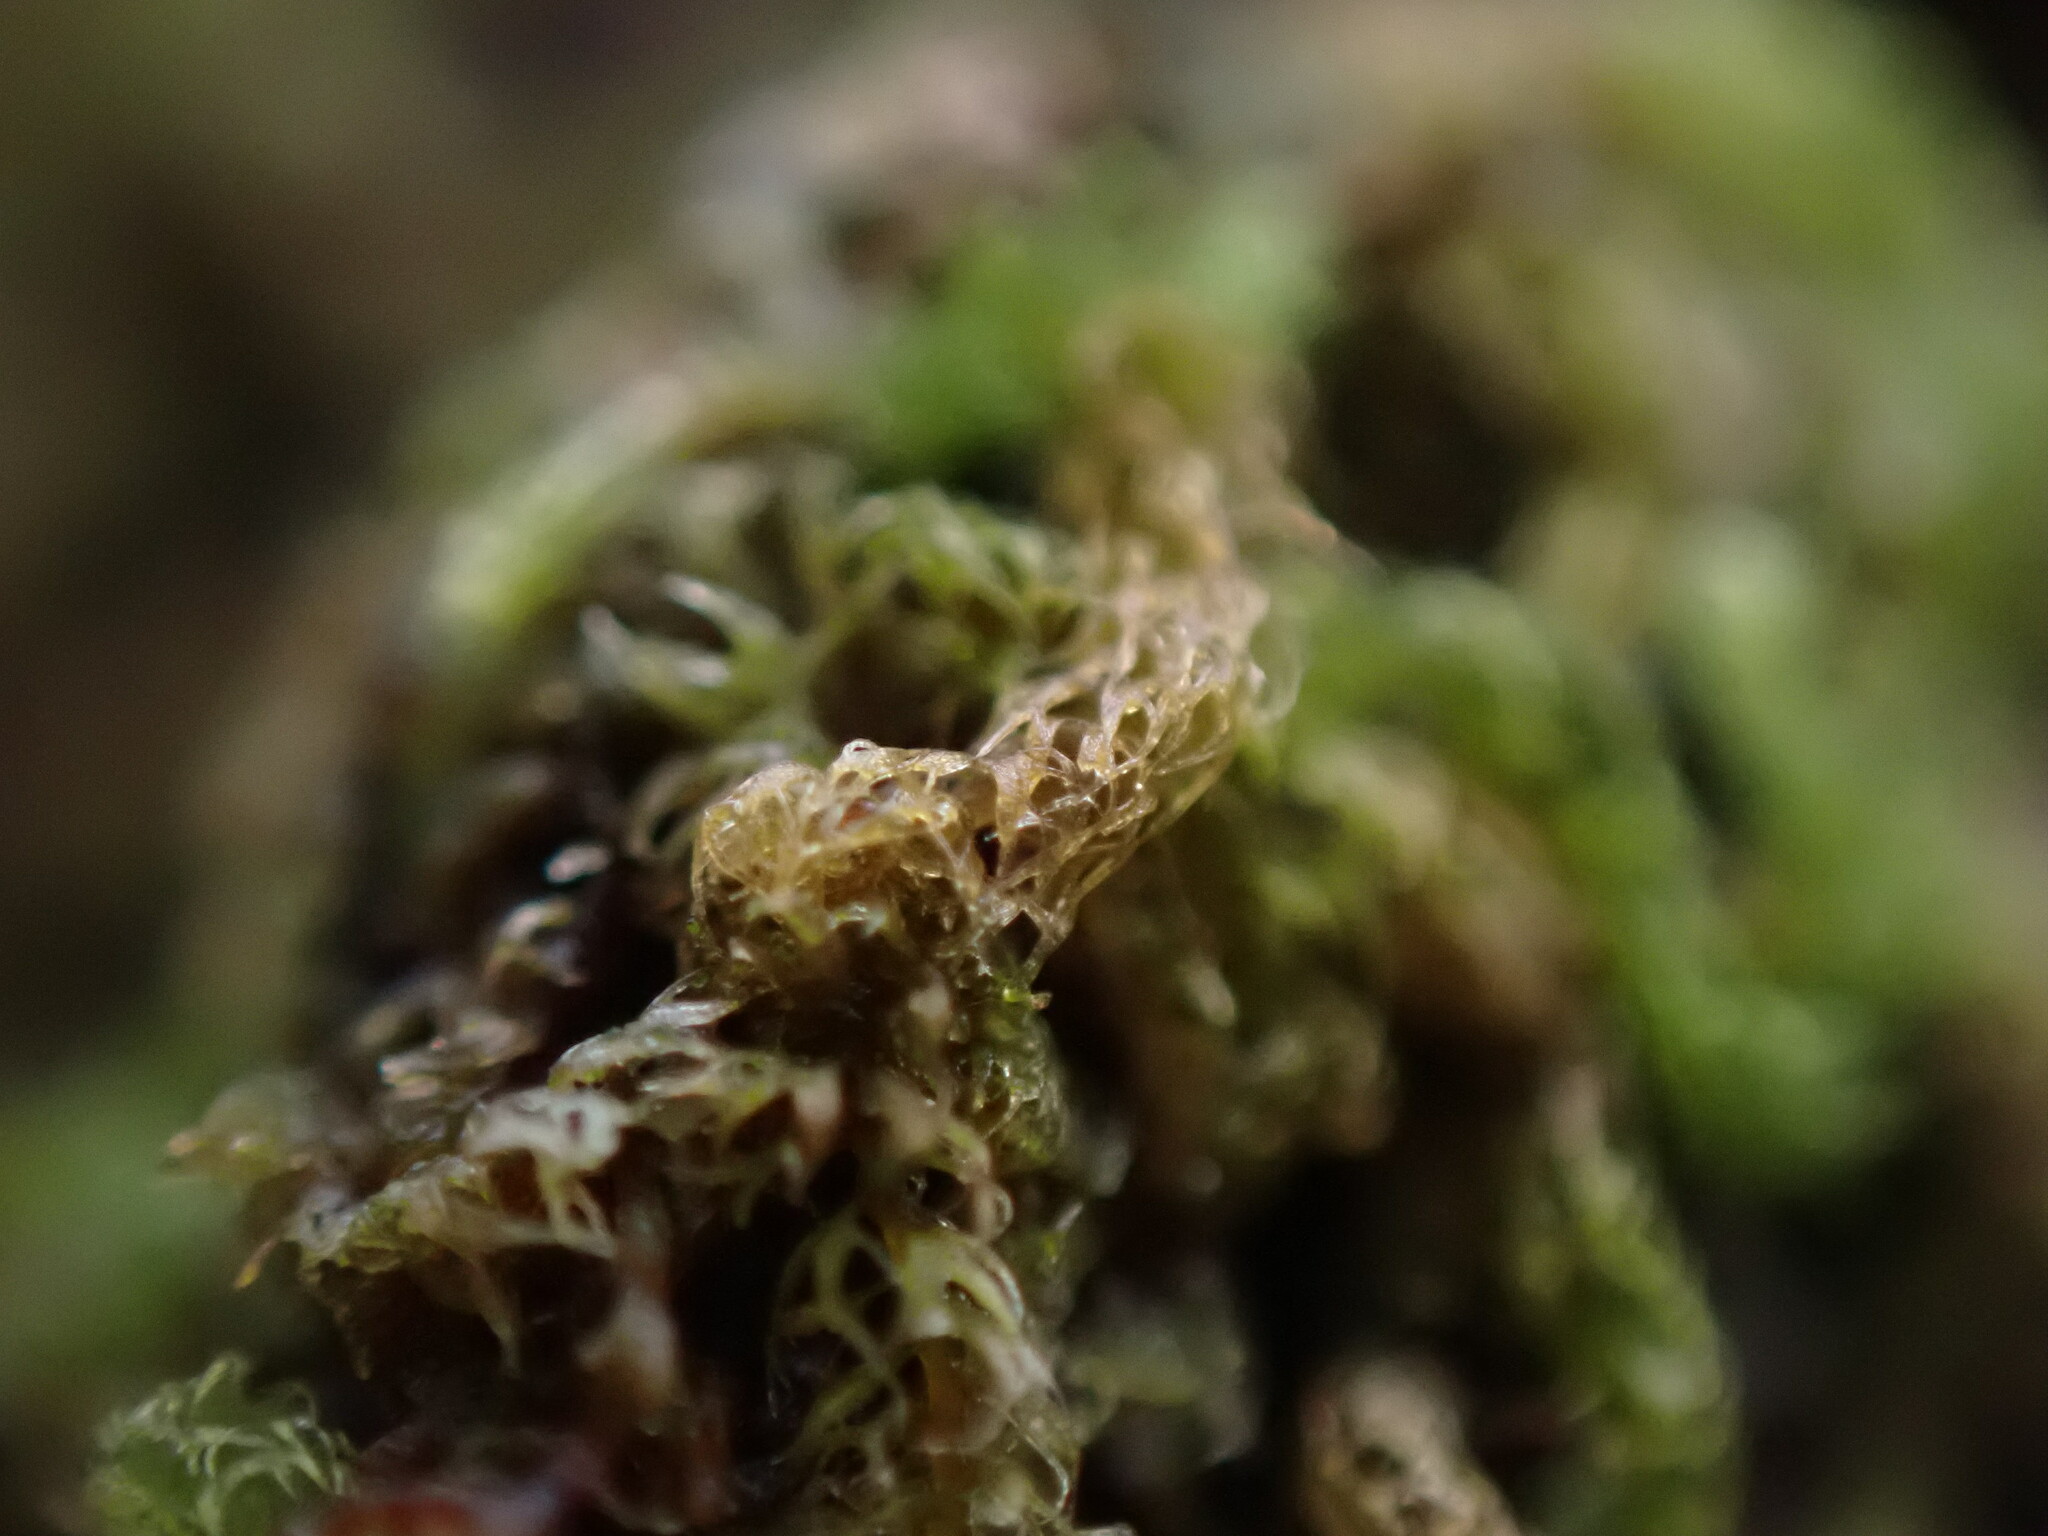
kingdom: Plantae
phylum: Marchantiophyta
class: Jungermanniopsida
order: Ptilidiales
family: Ptilidiaceae
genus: Ptilidium
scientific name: Ptilidium californicum
